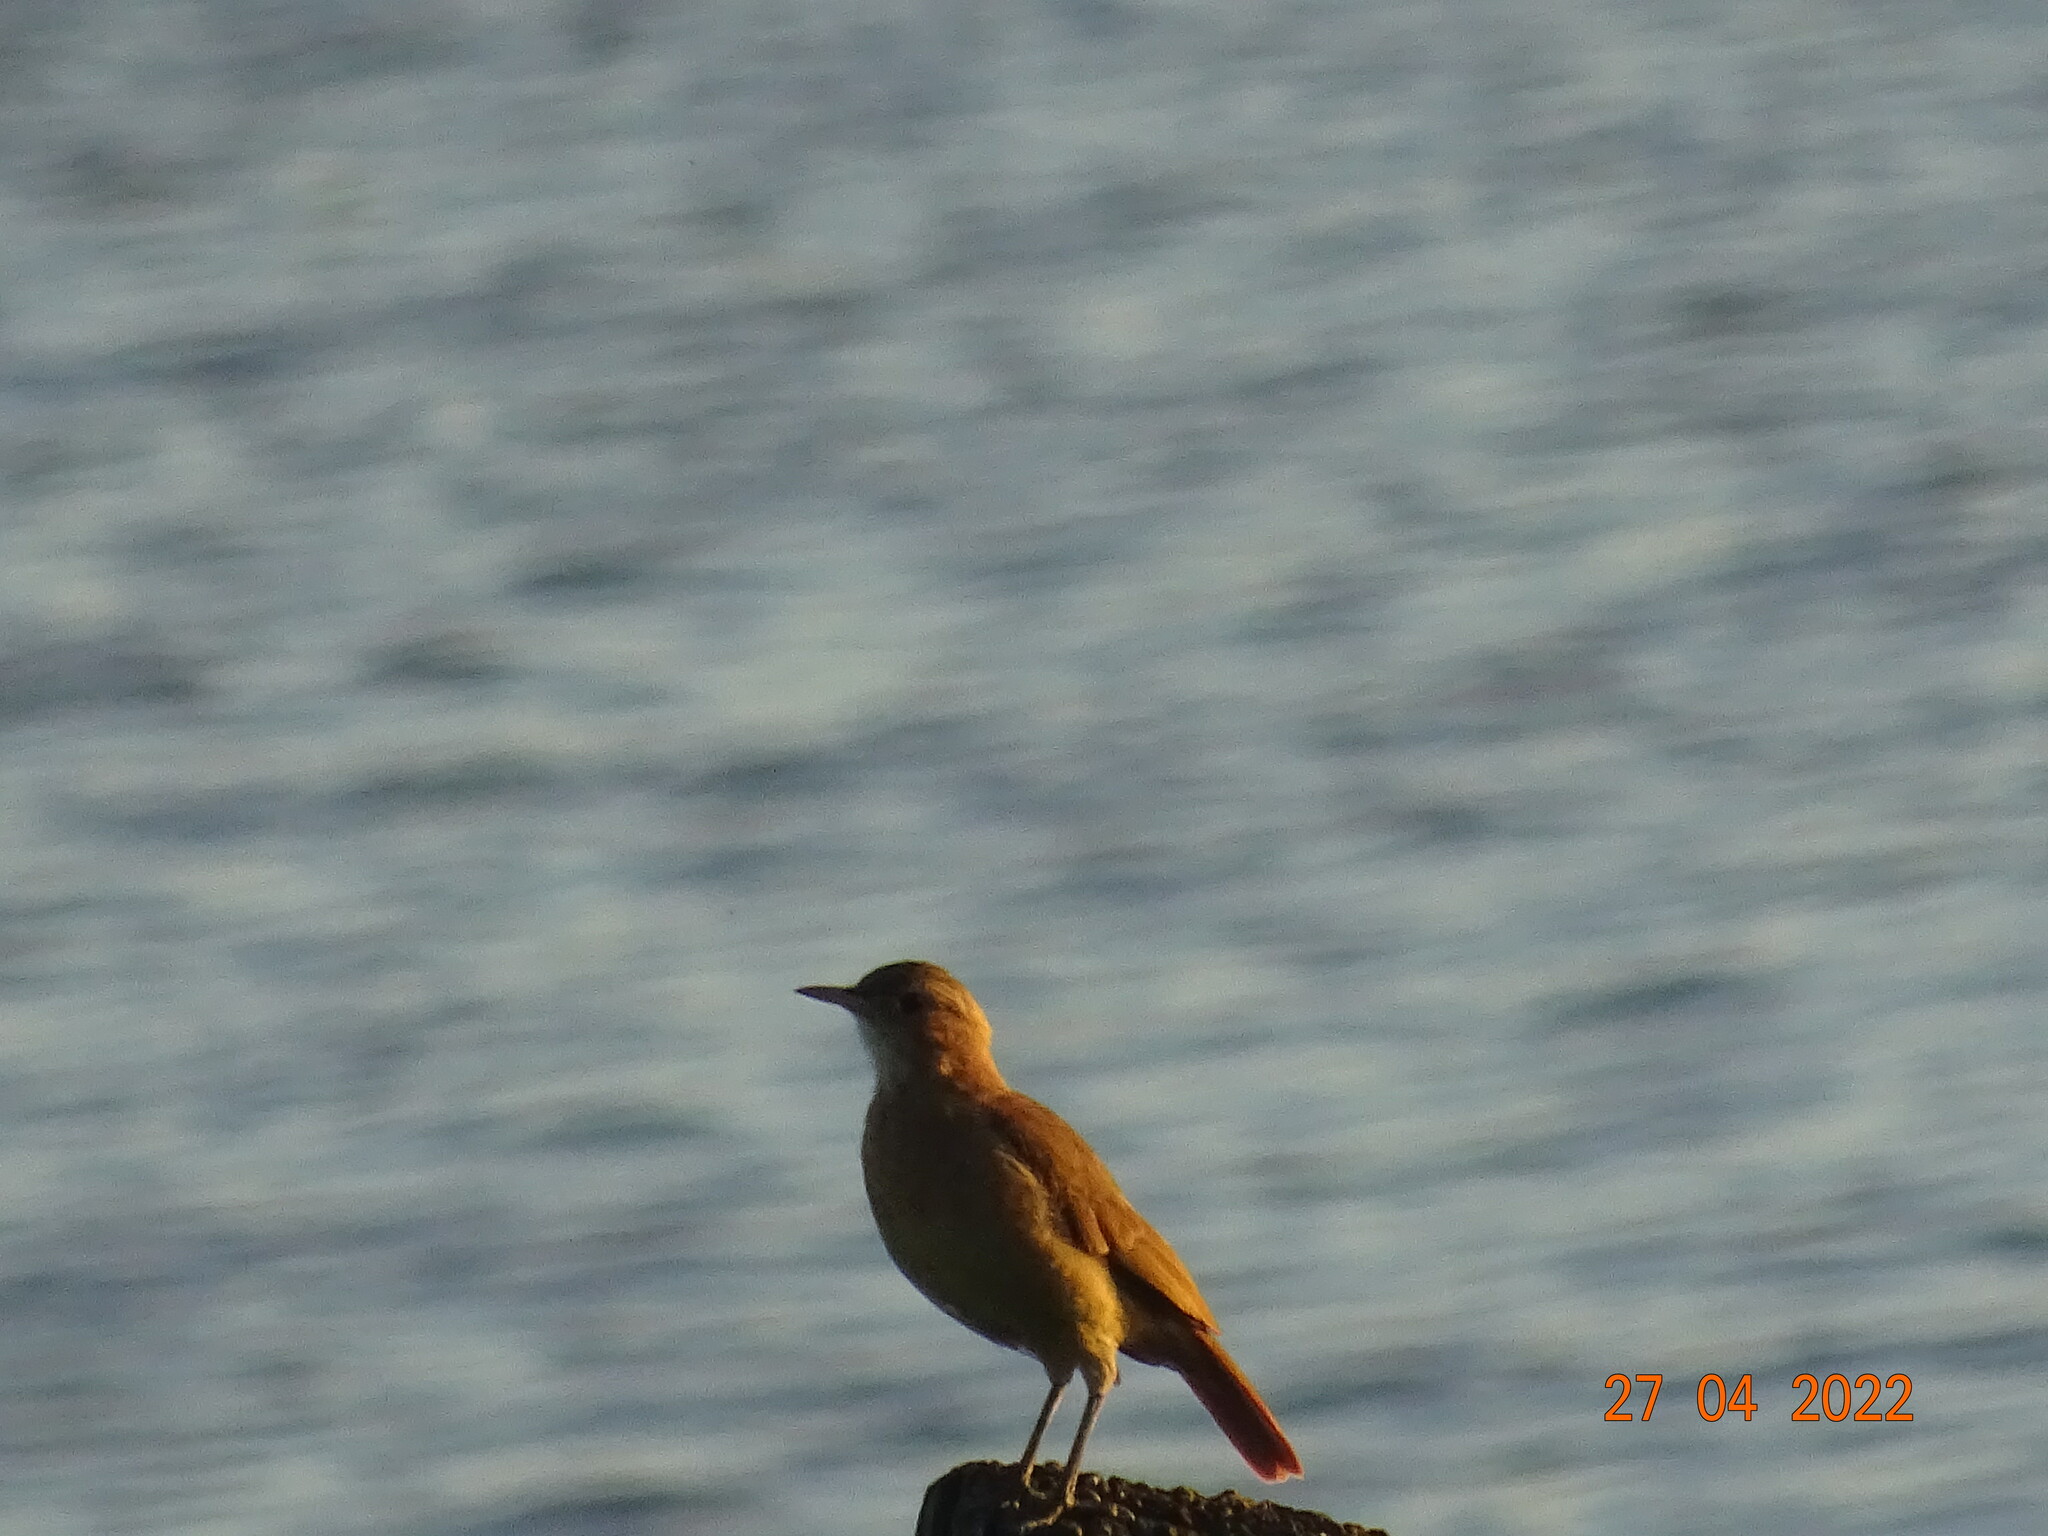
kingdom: Animalia
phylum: Chordata
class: Aves
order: Passeriformes
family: Furnariidae
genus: Furnarius
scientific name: Furnarius rufus
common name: Rufous hornero
